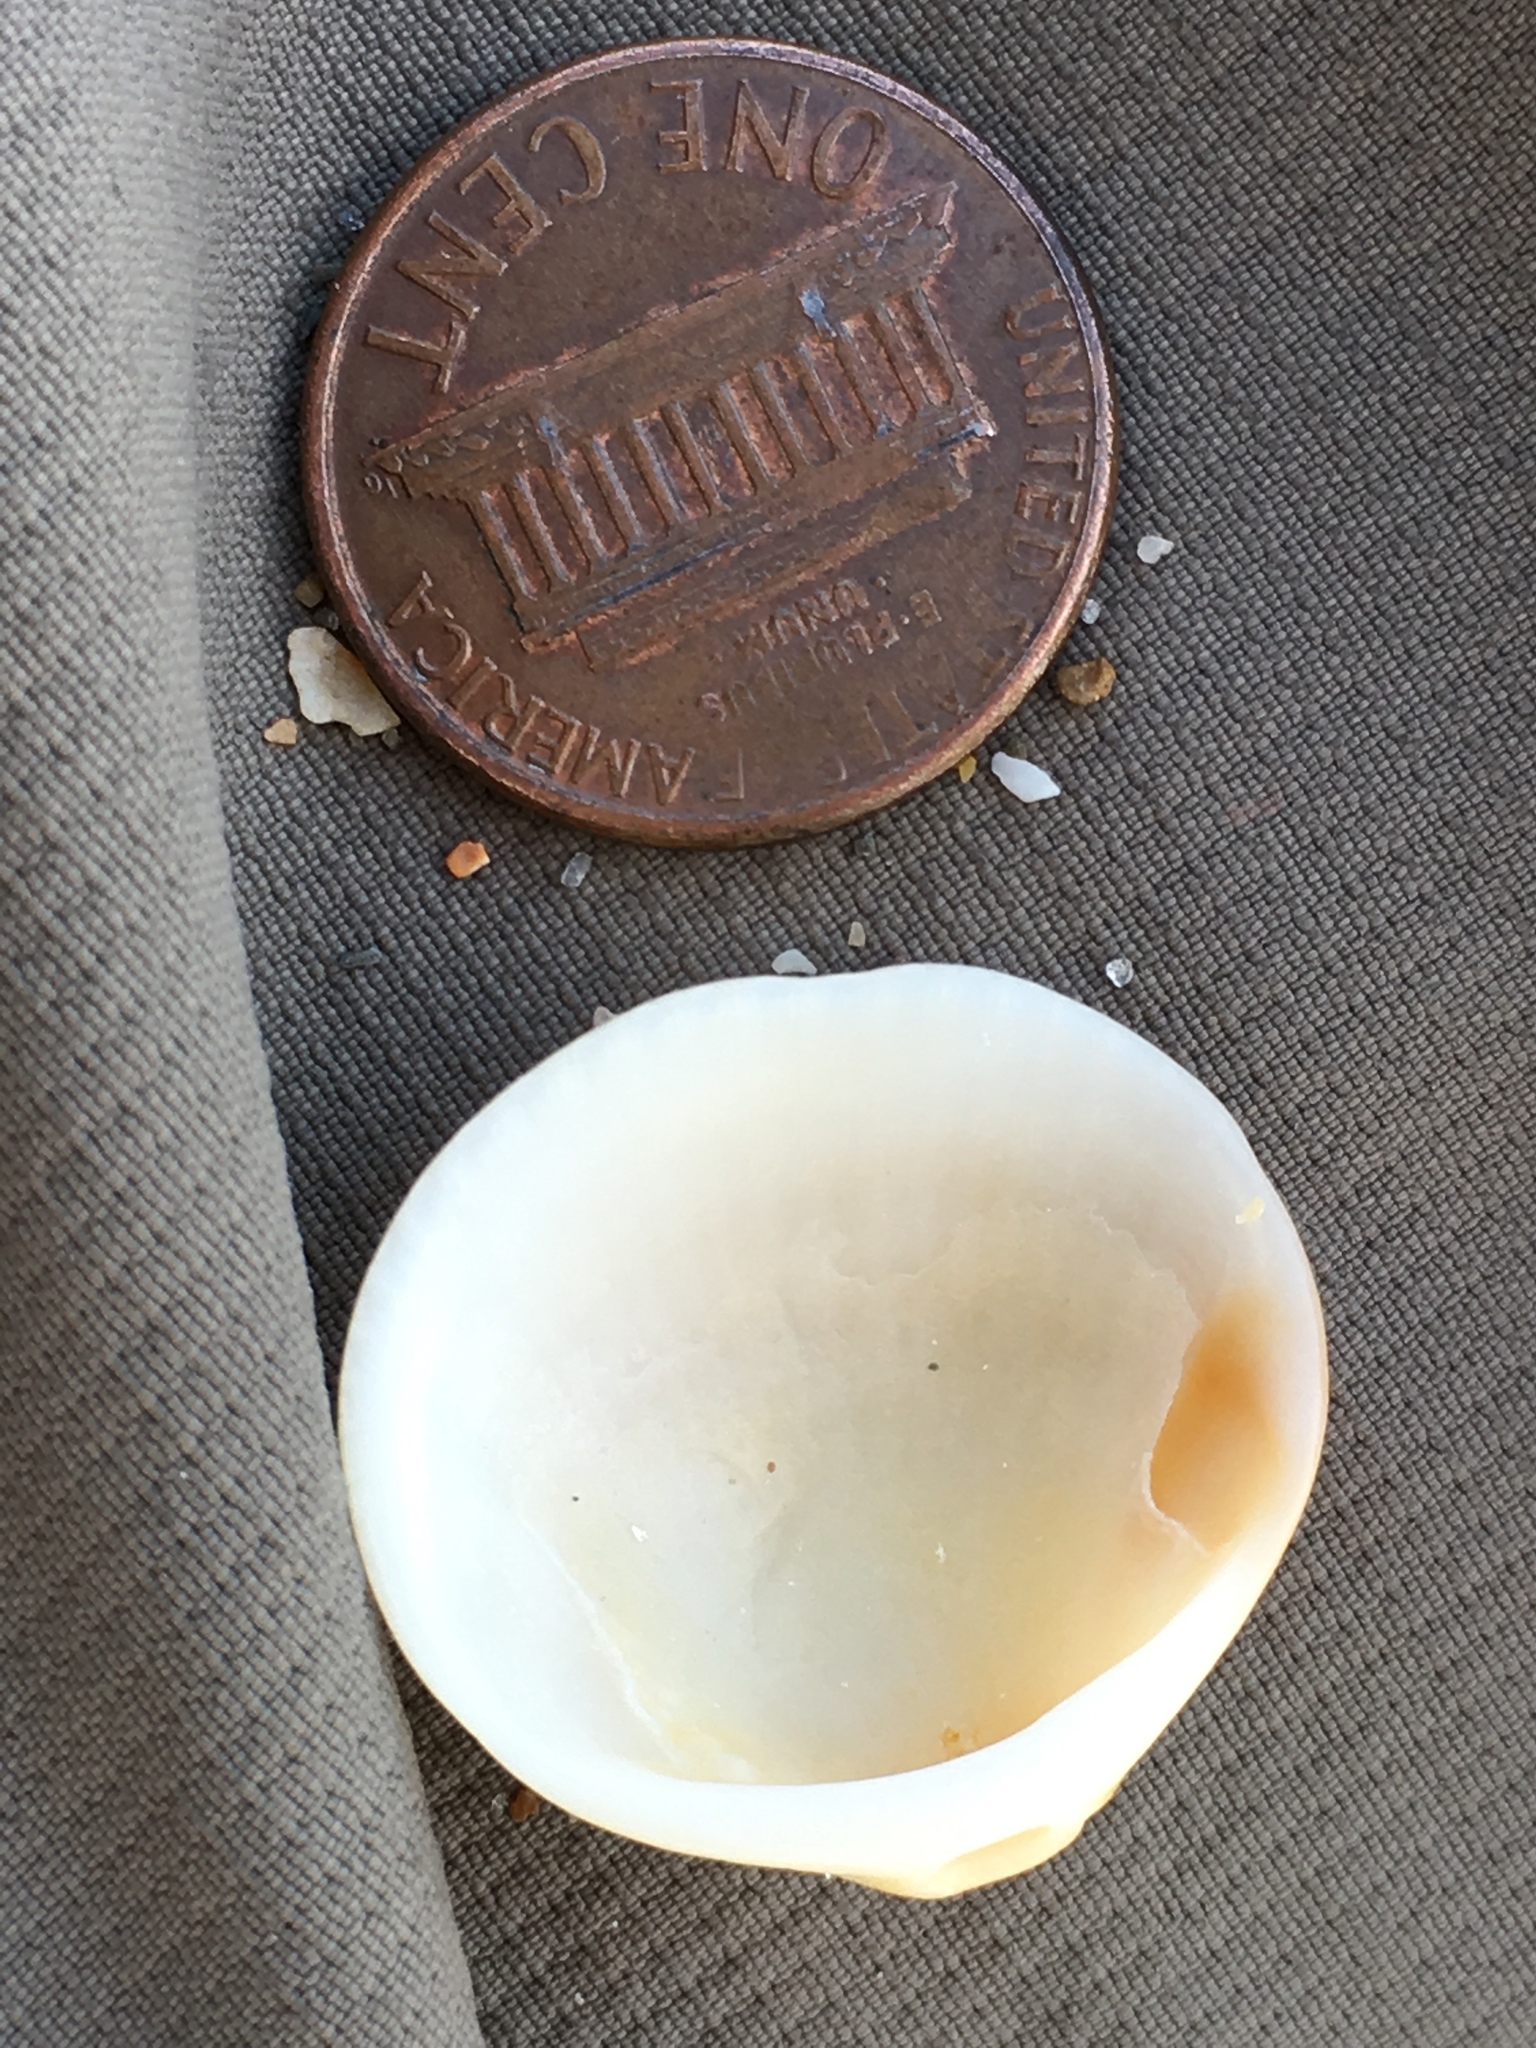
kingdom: Animalia
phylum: Mollusca
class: Bivalvia
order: Arcida
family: Glycymerididae
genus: Glycymeris
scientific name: Glycymeris spectralis
